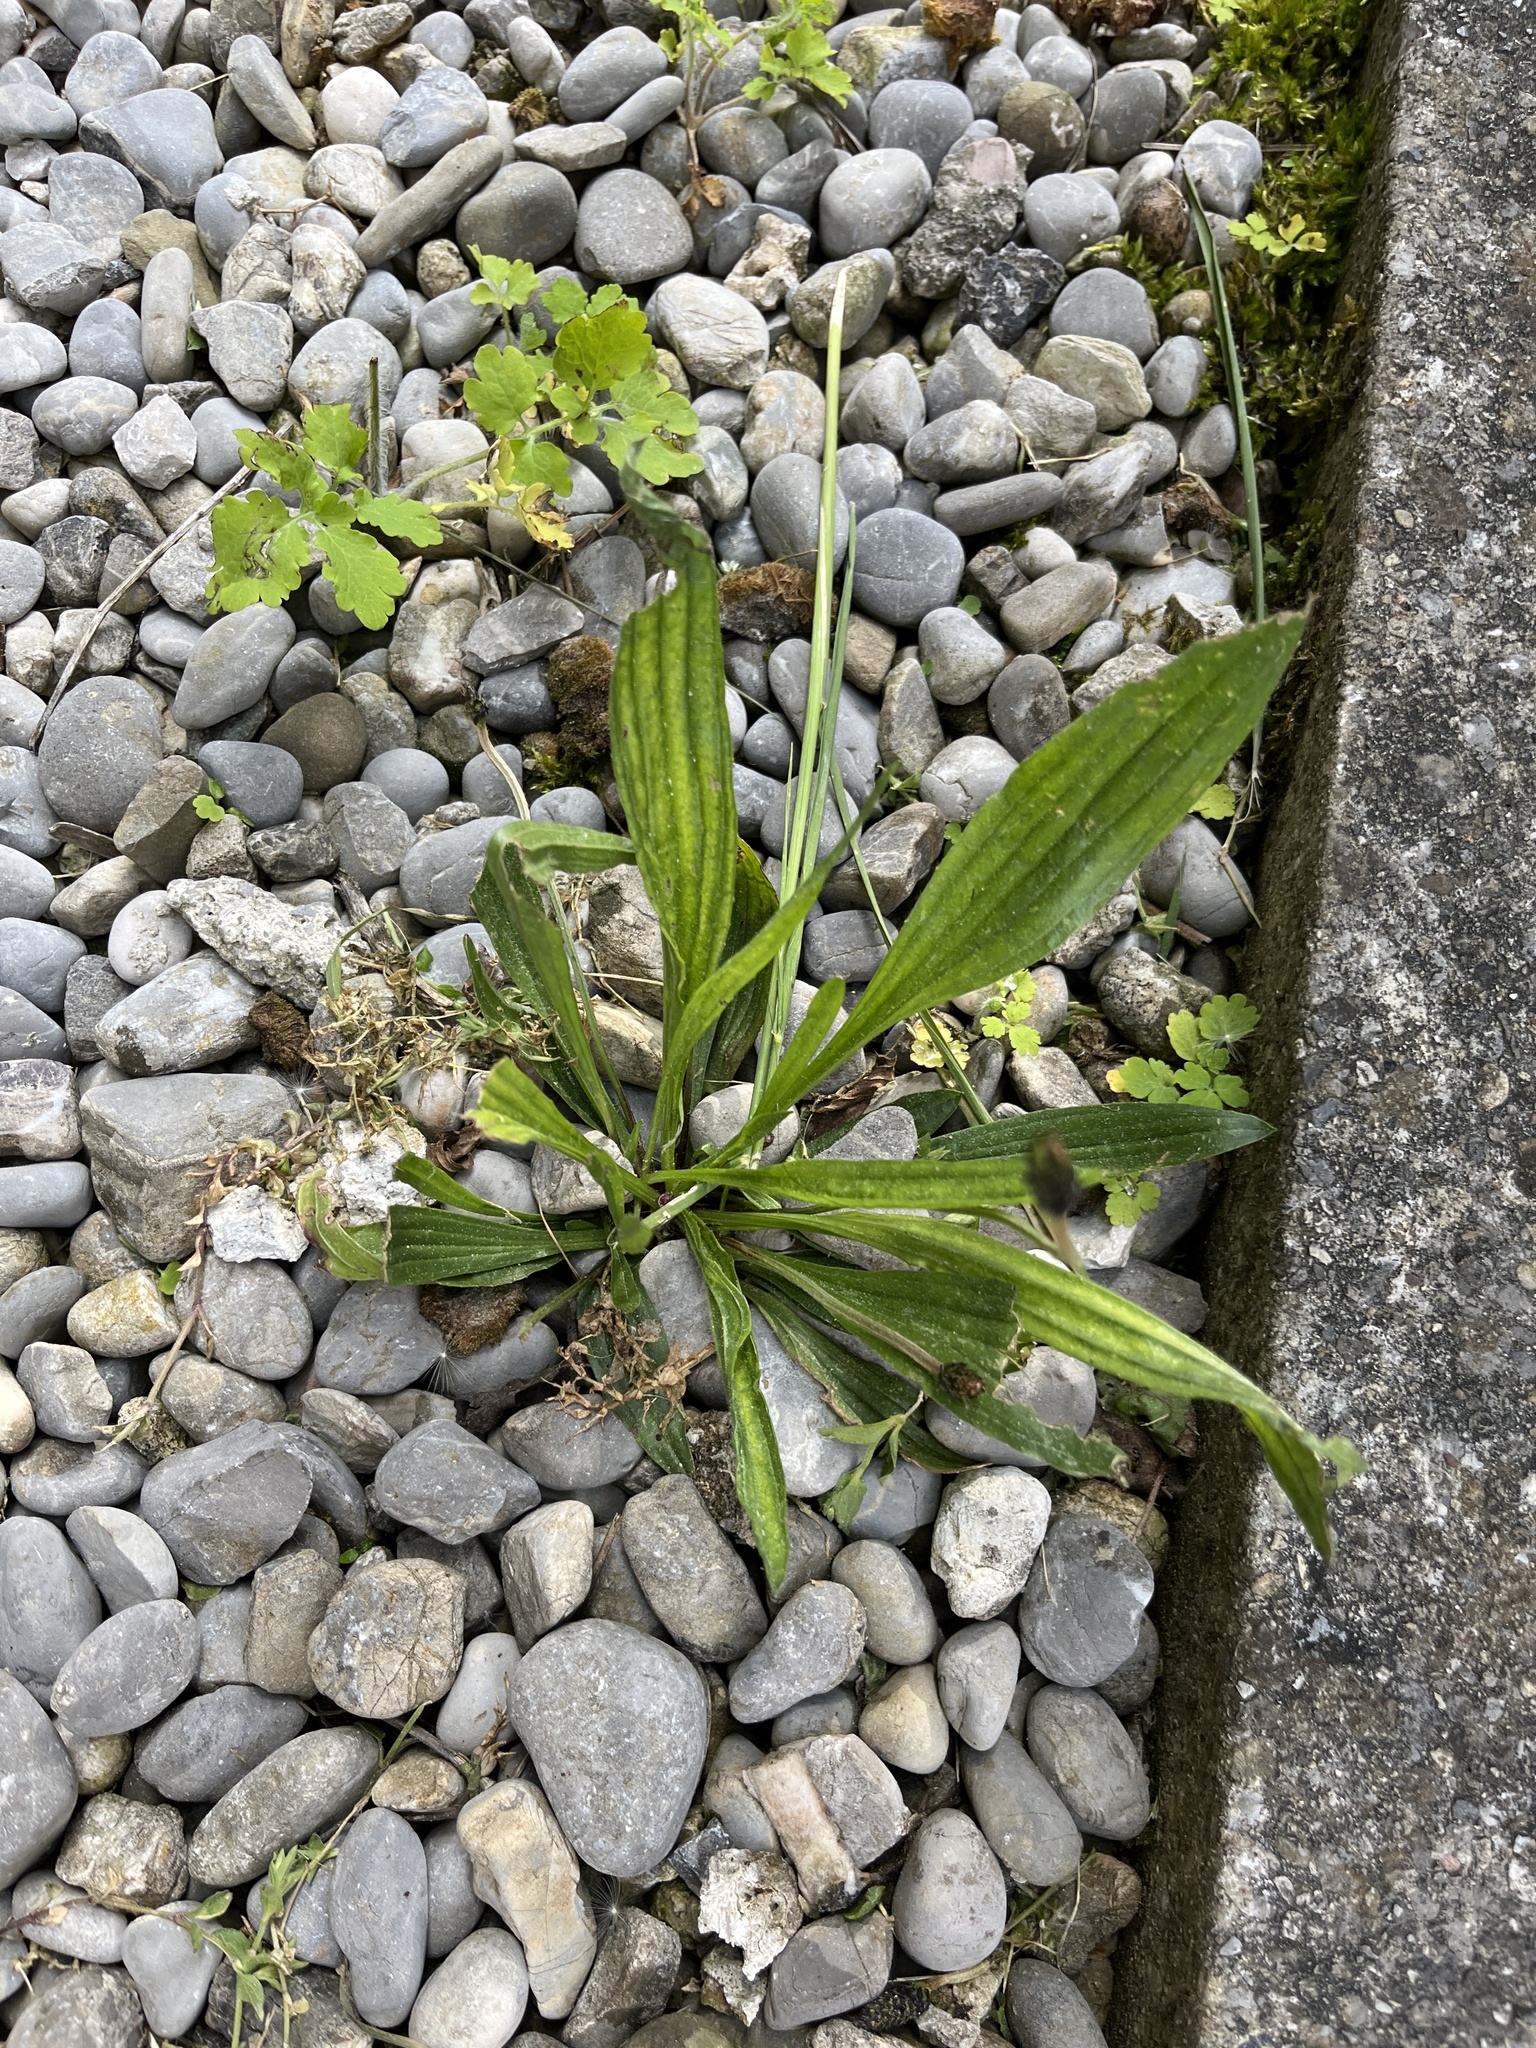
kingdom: Plantae
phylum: Tracheophyta
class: Magnoliopsida
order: Lamiales
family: Plantaginaceae
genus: Plantago
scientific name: Plantago lanceolata
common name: Ribwort plantain
